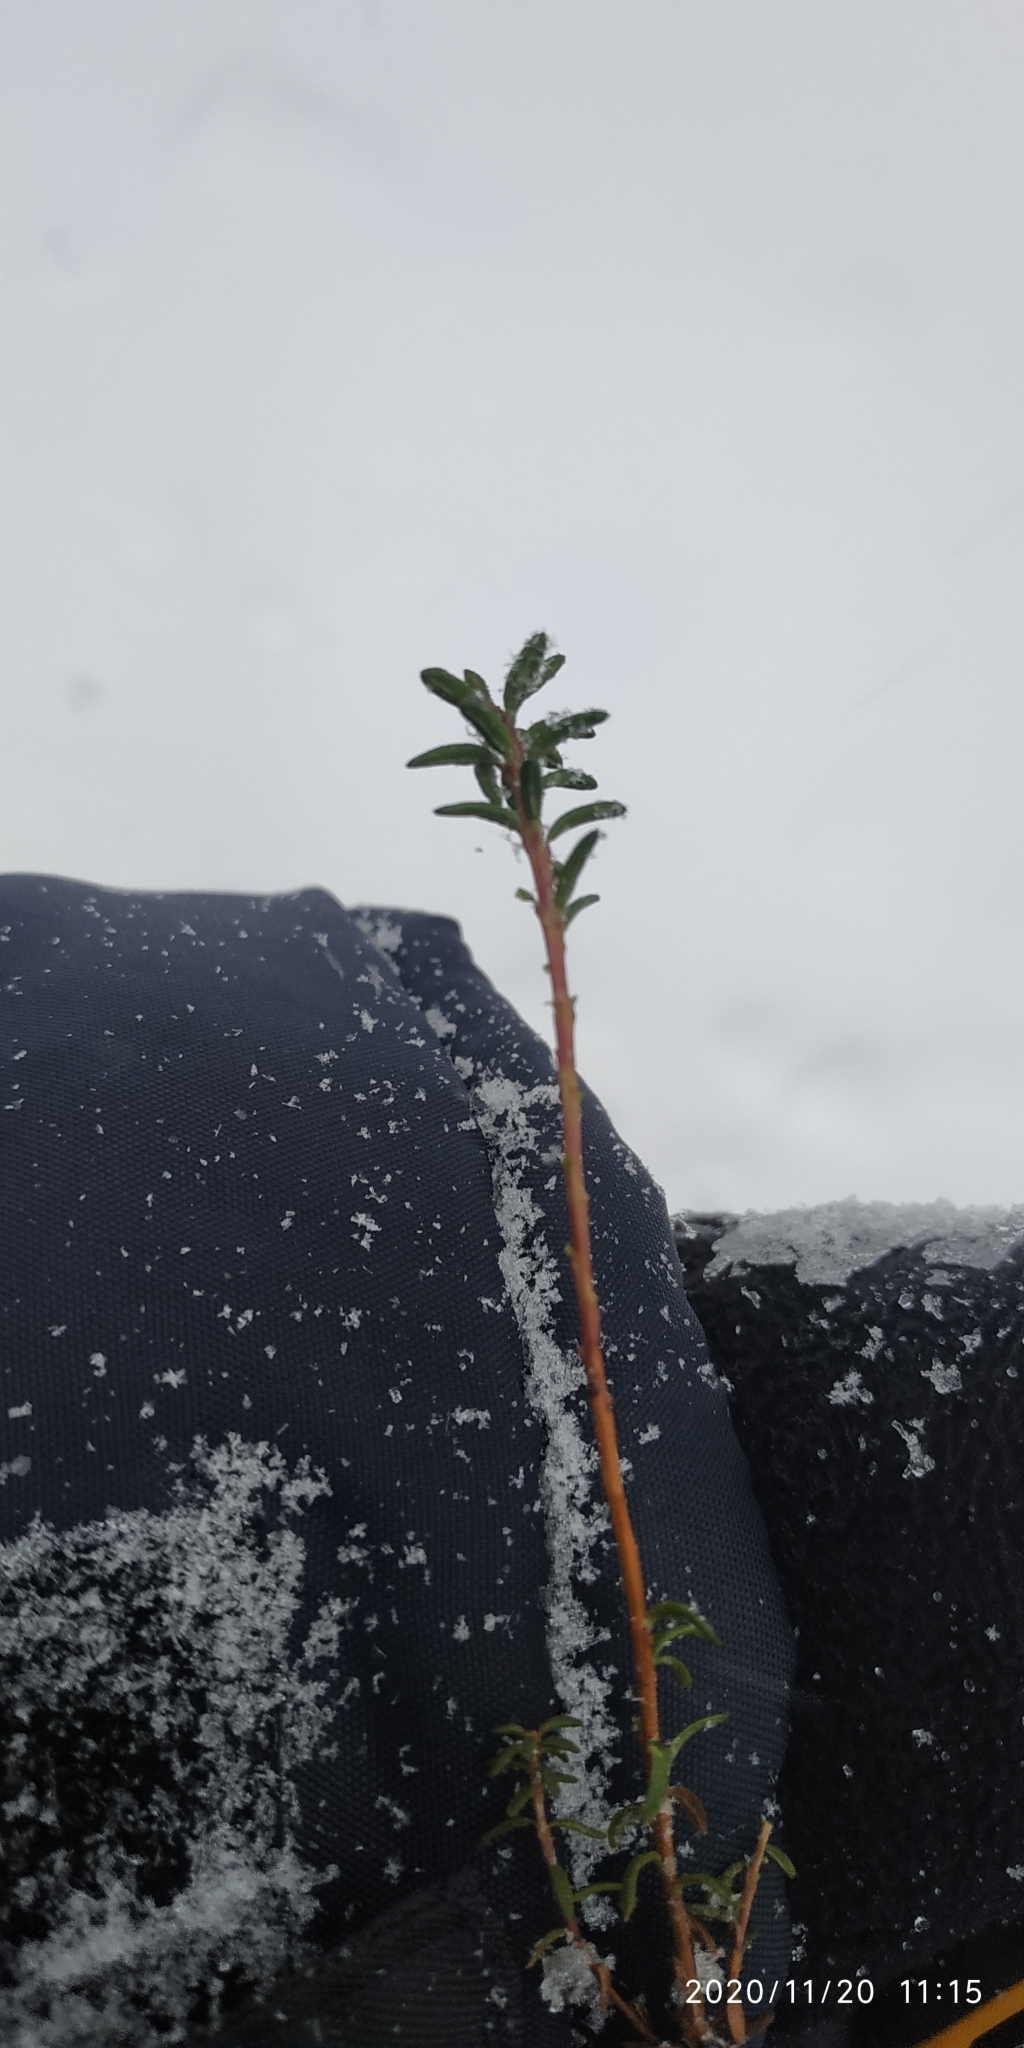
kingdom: Plantae
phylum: Tracheophyta
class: Magnoliopsida
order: Ericales
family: Ericaceae
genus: Empetrum
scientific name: Empetrum nigrum
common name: Black crowberry
